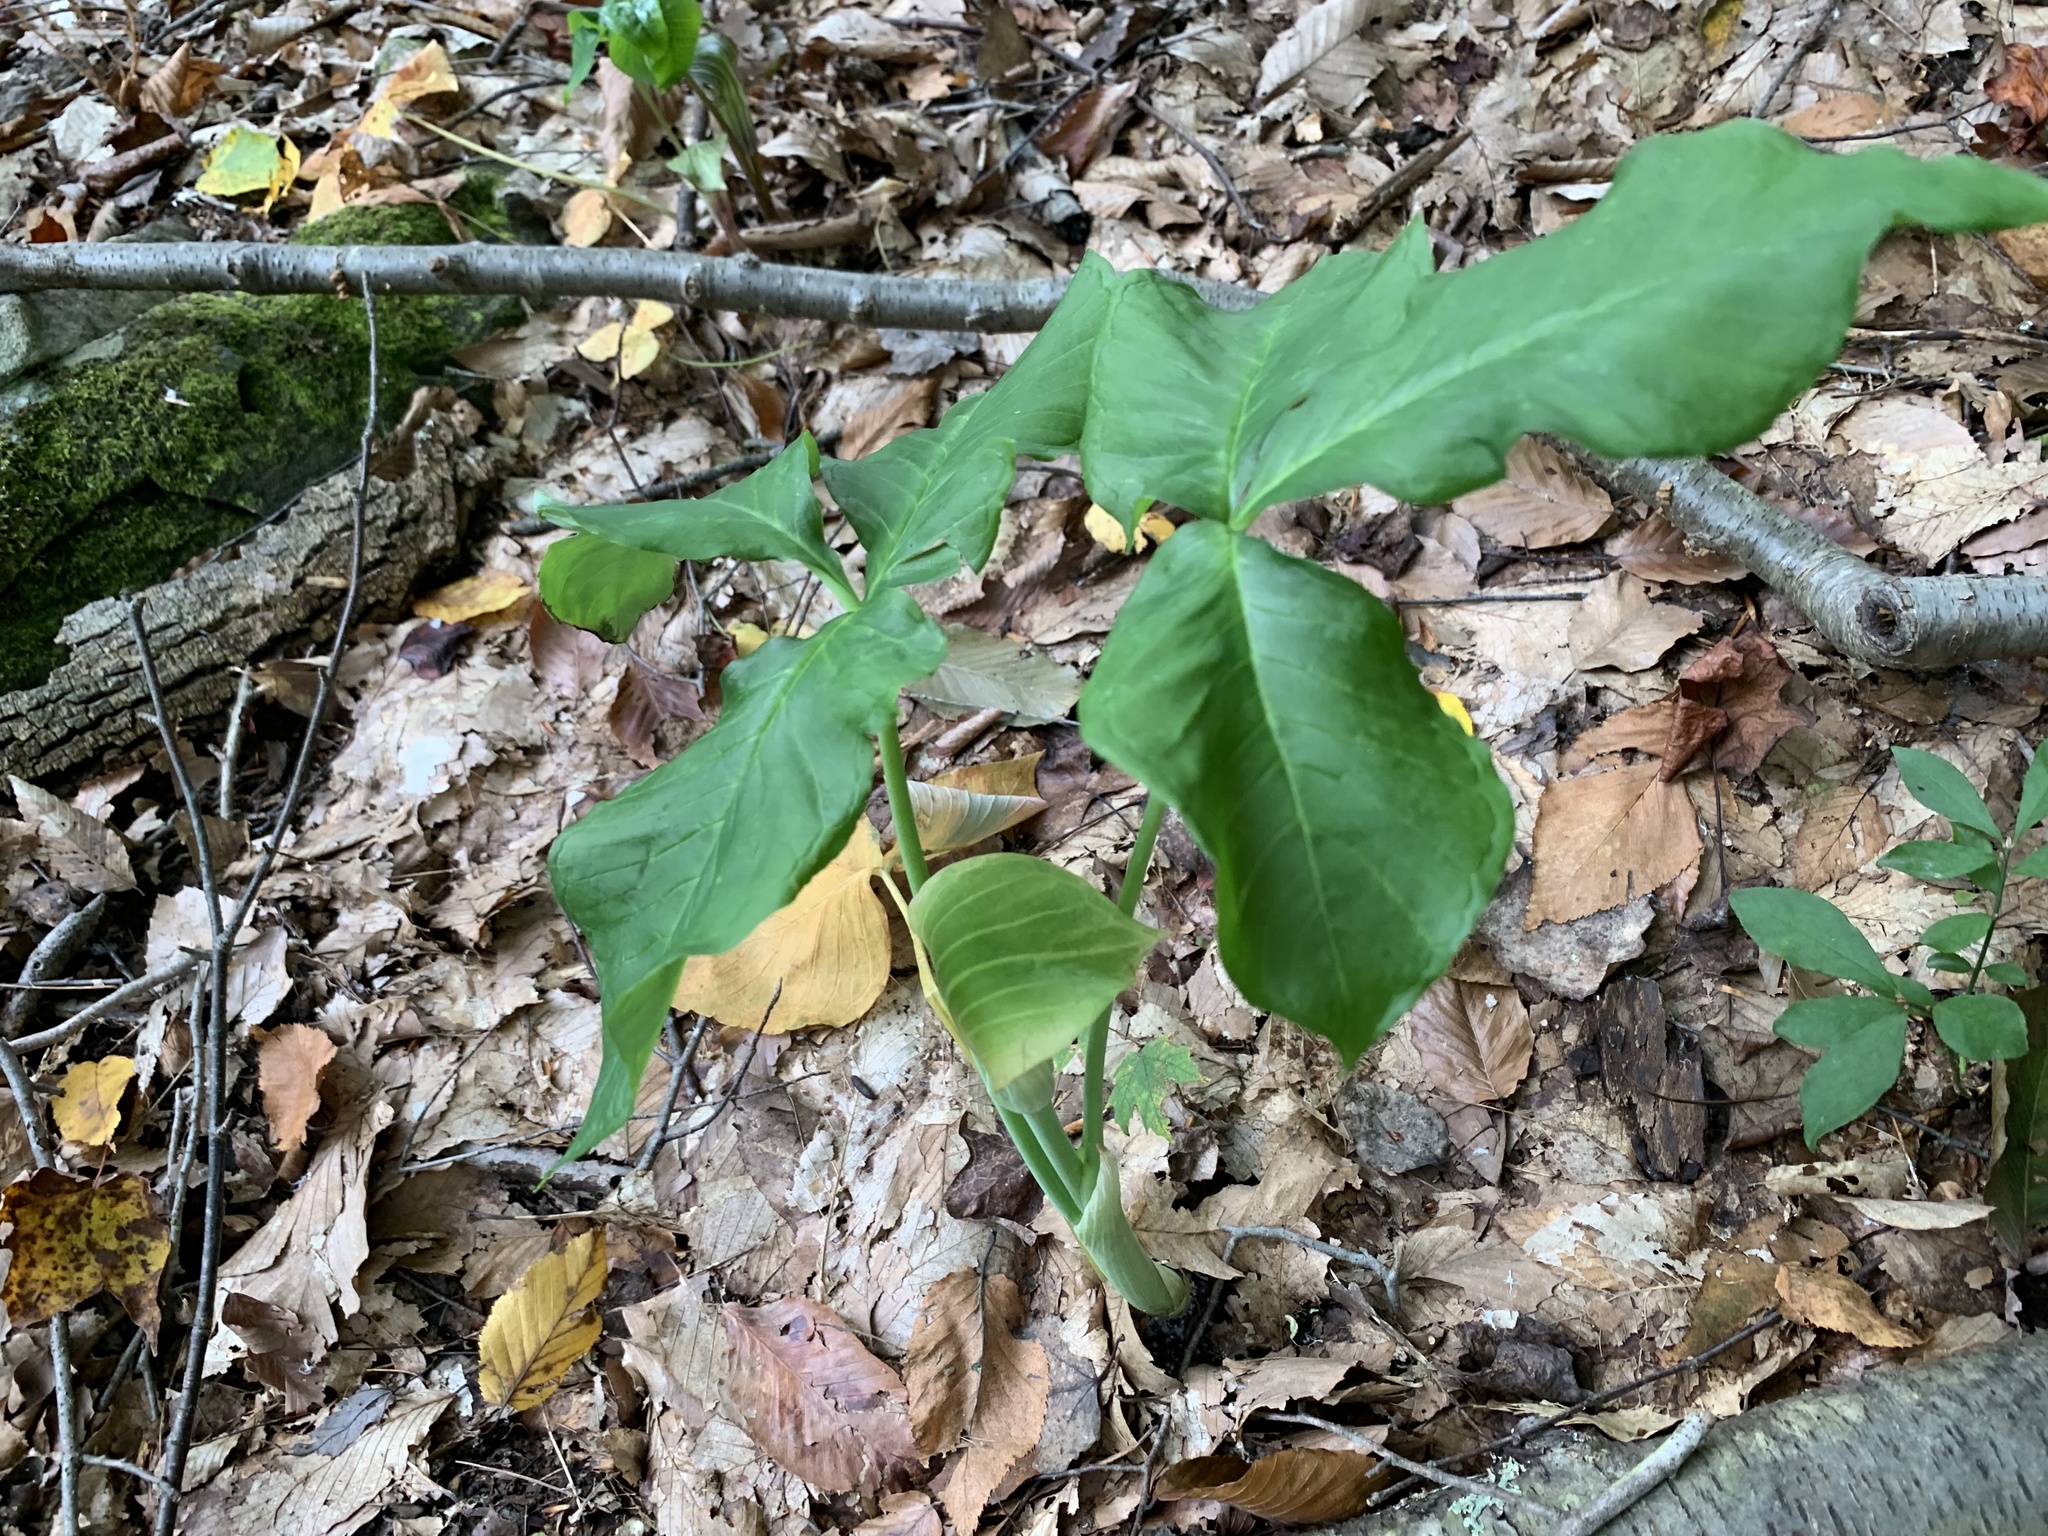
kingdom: Plantae
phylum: Tracheophyta
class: Liliopsida
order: Alismatales
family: Araceae
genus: Arisaema
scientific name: Arisaema triphyllum
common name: Jack-in-the-pulpit
